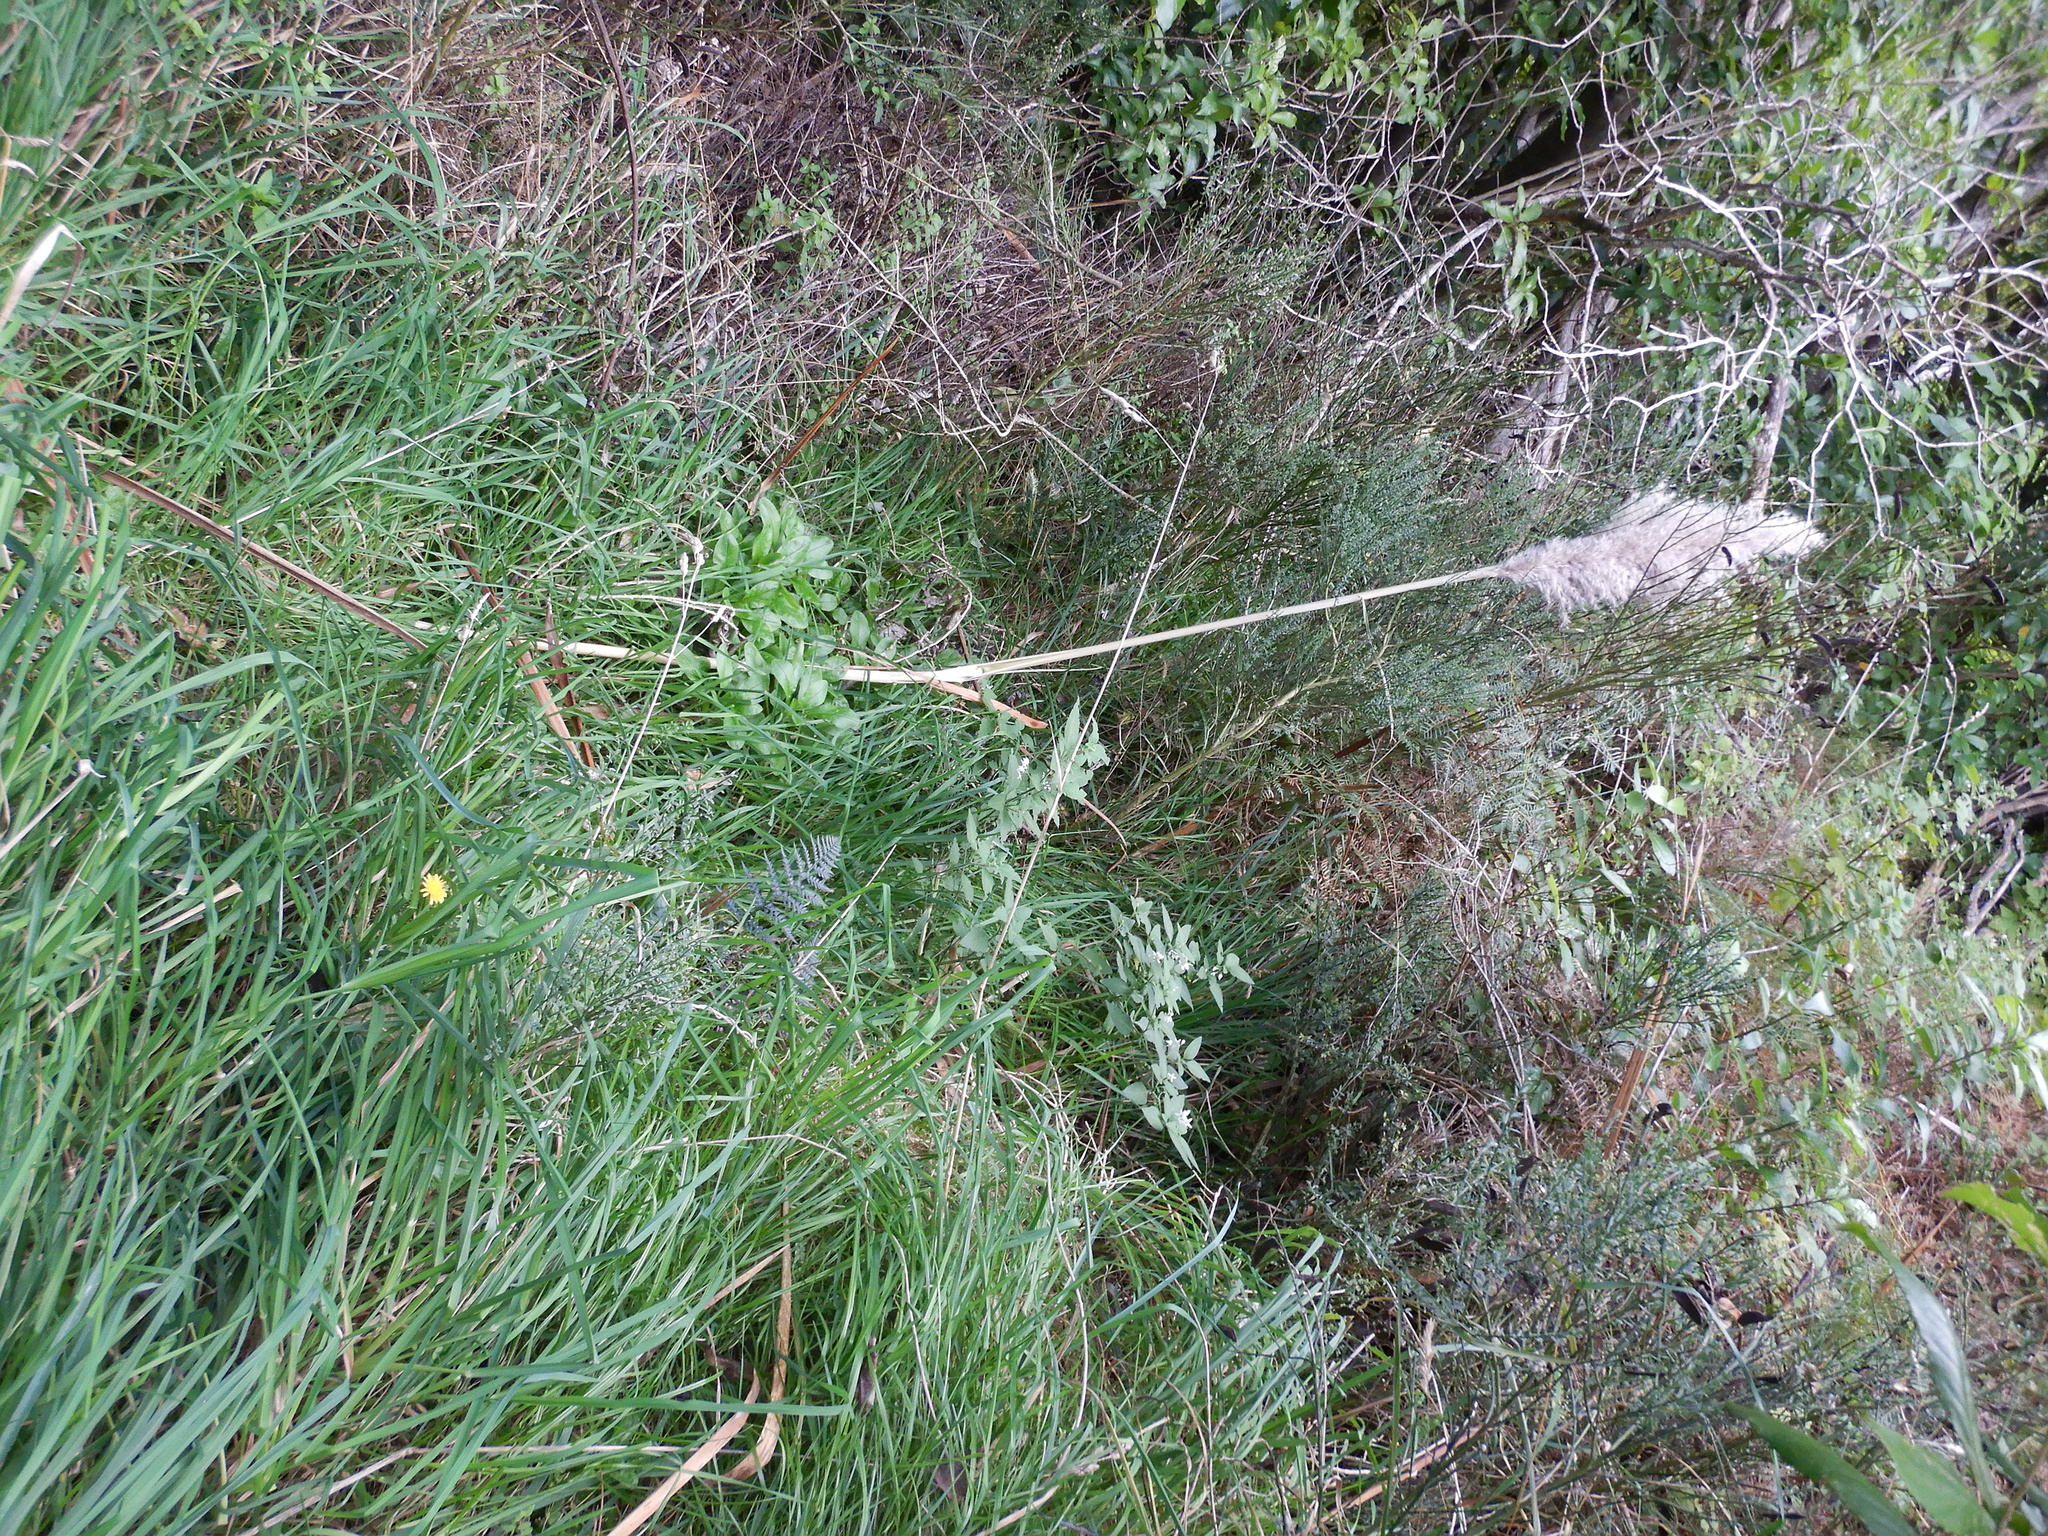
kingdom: Plantae
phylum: Tracheophyta
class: Liliopsida
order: Poales
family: Poaceae
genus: Cortaderia
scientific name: Cortaderia selloana
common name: Uruguayan pampas grass
